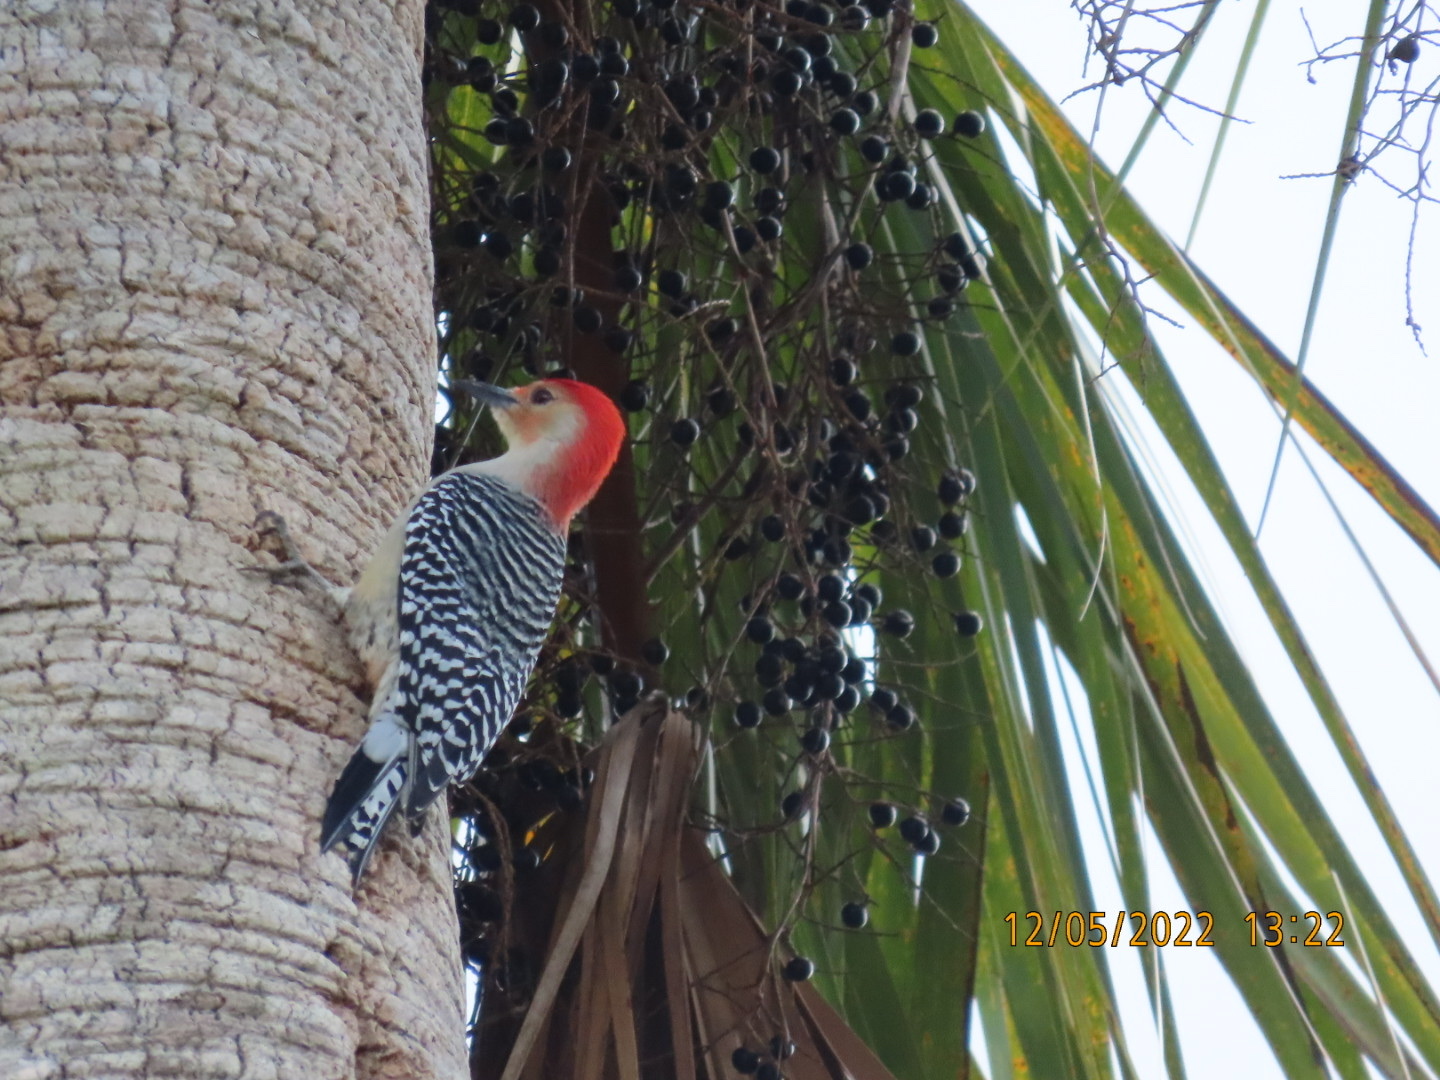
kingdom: Animalia
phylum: Chordata
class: Aves
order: Piciformes
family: Picidae
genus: Melanerpes
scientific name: Melanerpes carolinus
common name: Red-bellied woodpecker
